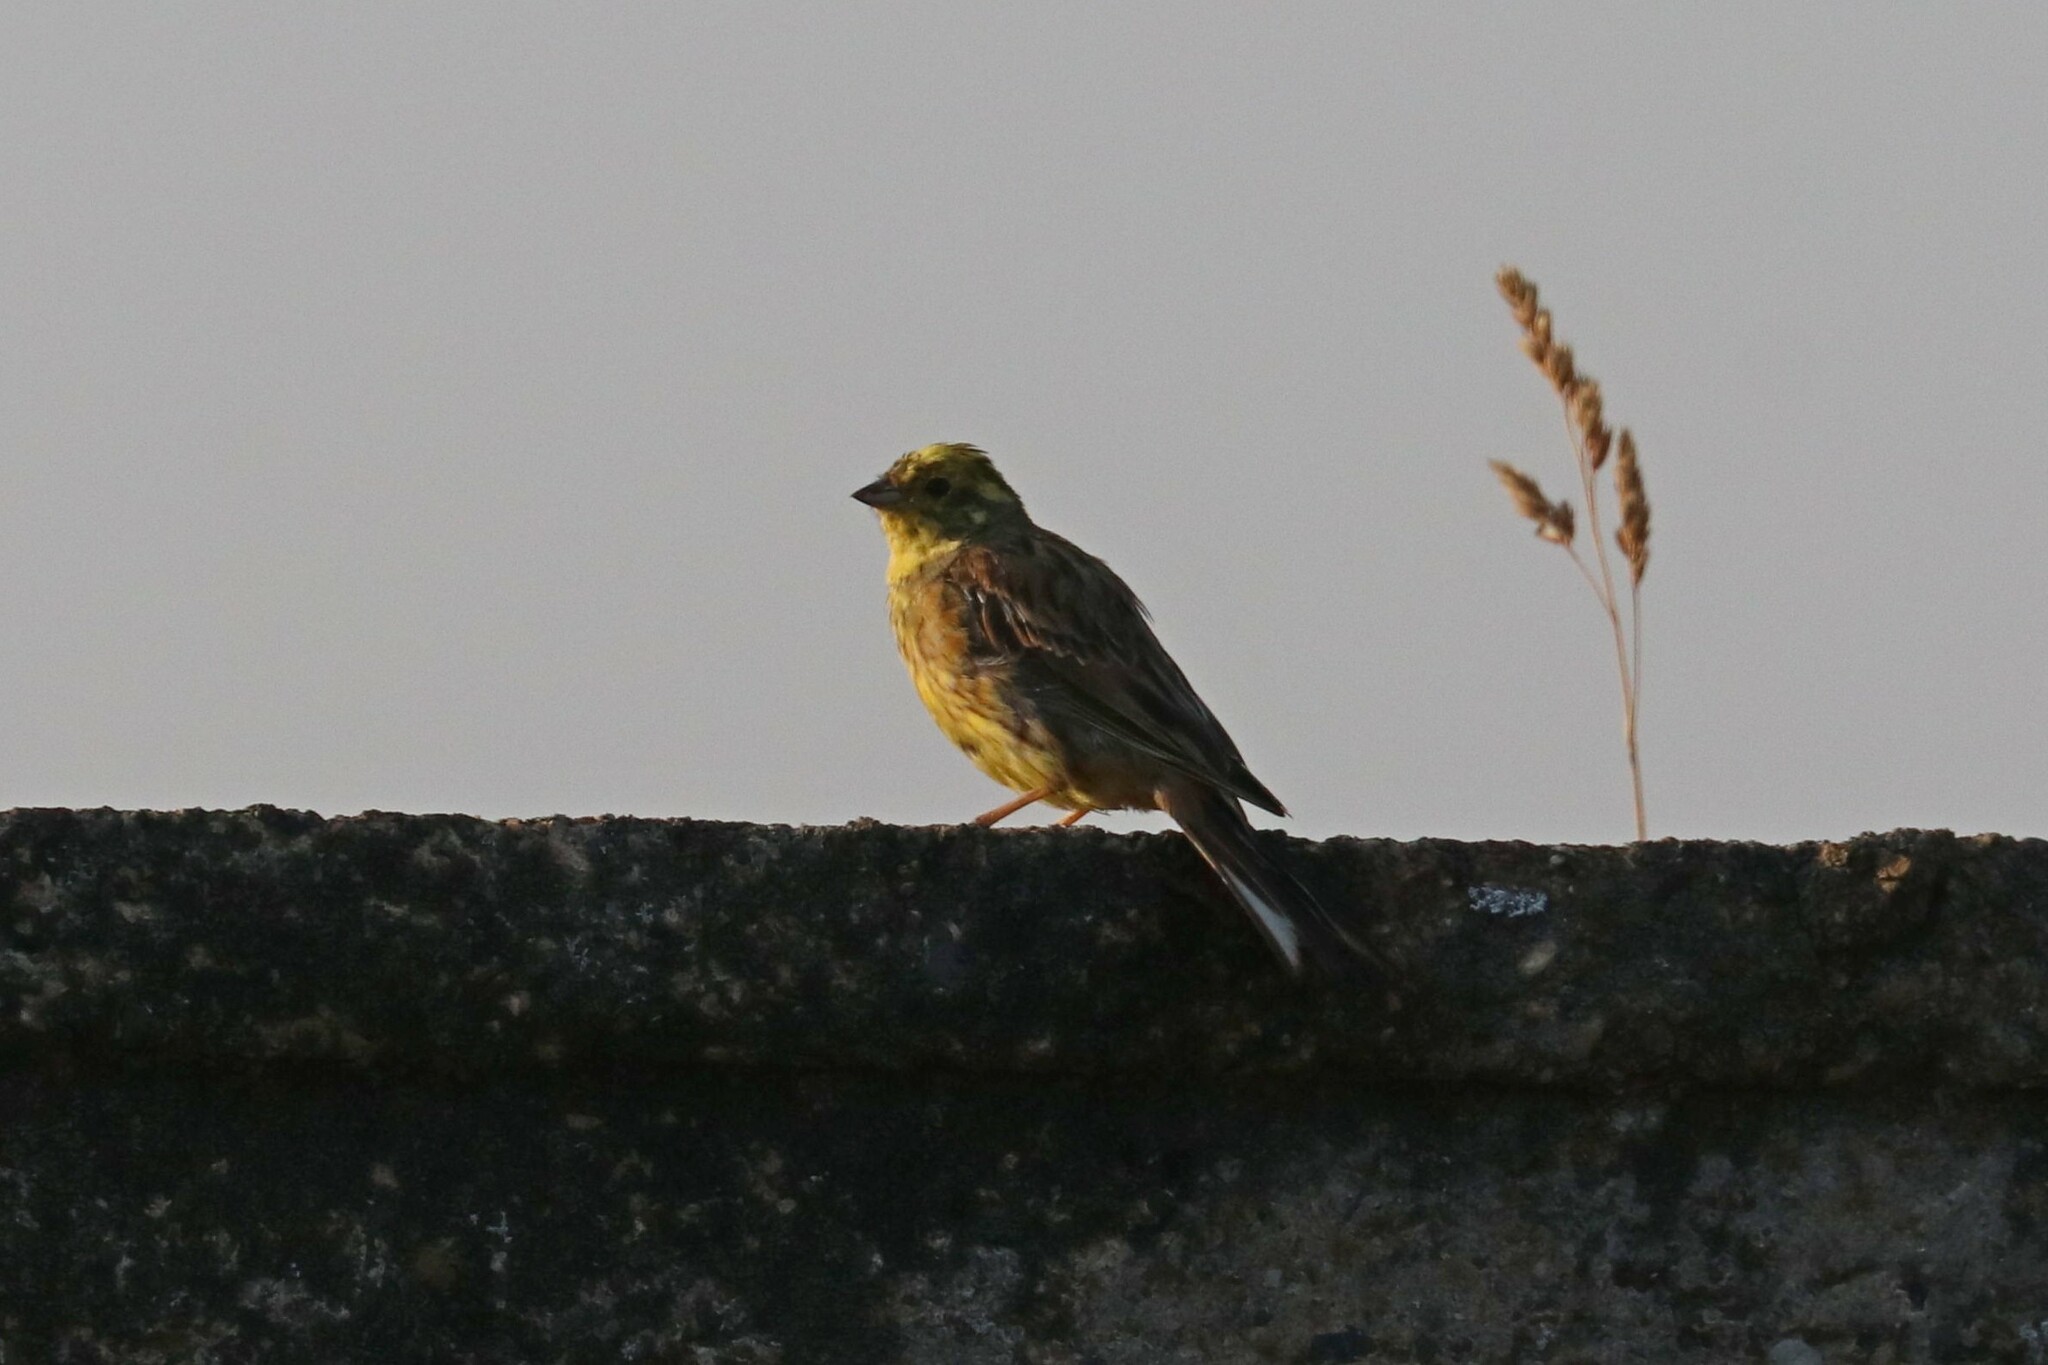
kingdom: Animalia
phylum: Chordata
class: Aves
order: Passeriformes
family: Emberizidae
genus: Emberiza
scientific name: Emberiza citrinella
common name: Yellowhammer
